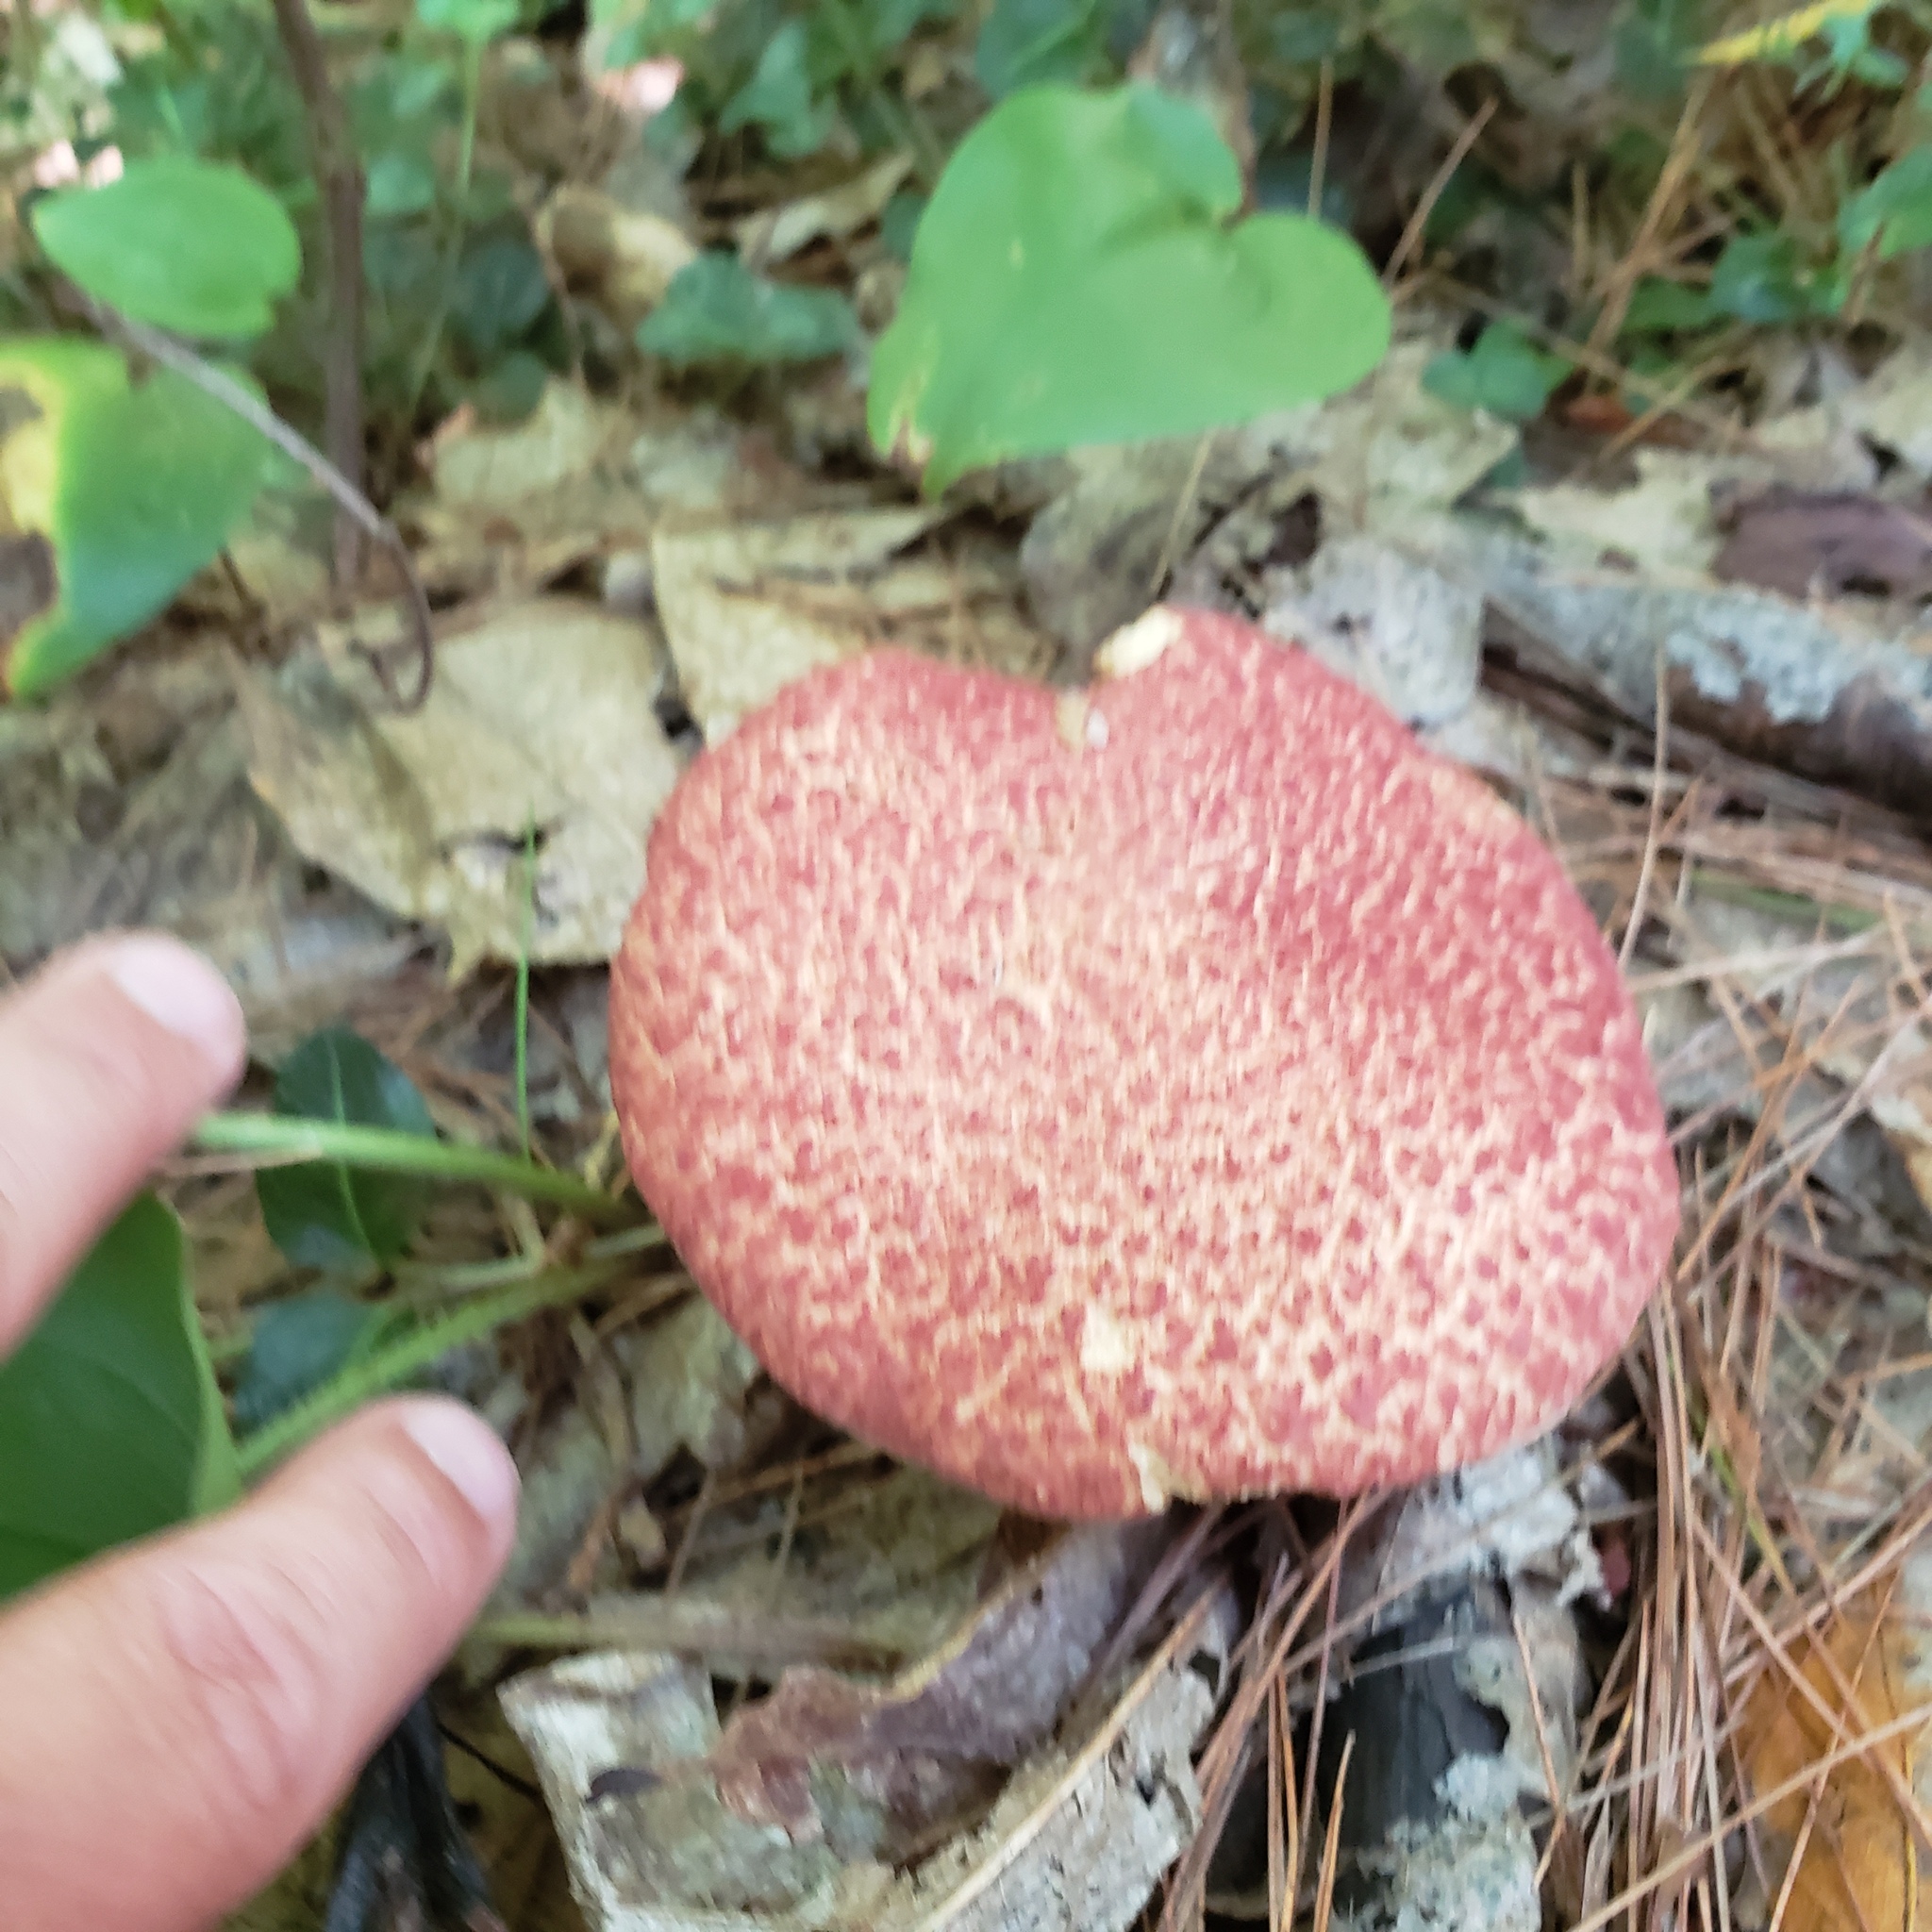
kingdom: Fungi
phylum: Basidiomycota
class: Agaricomycetes
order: Boletales
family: Suillaceae
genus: Suillus
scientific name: Suillus spraguei
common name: Painted suillus
